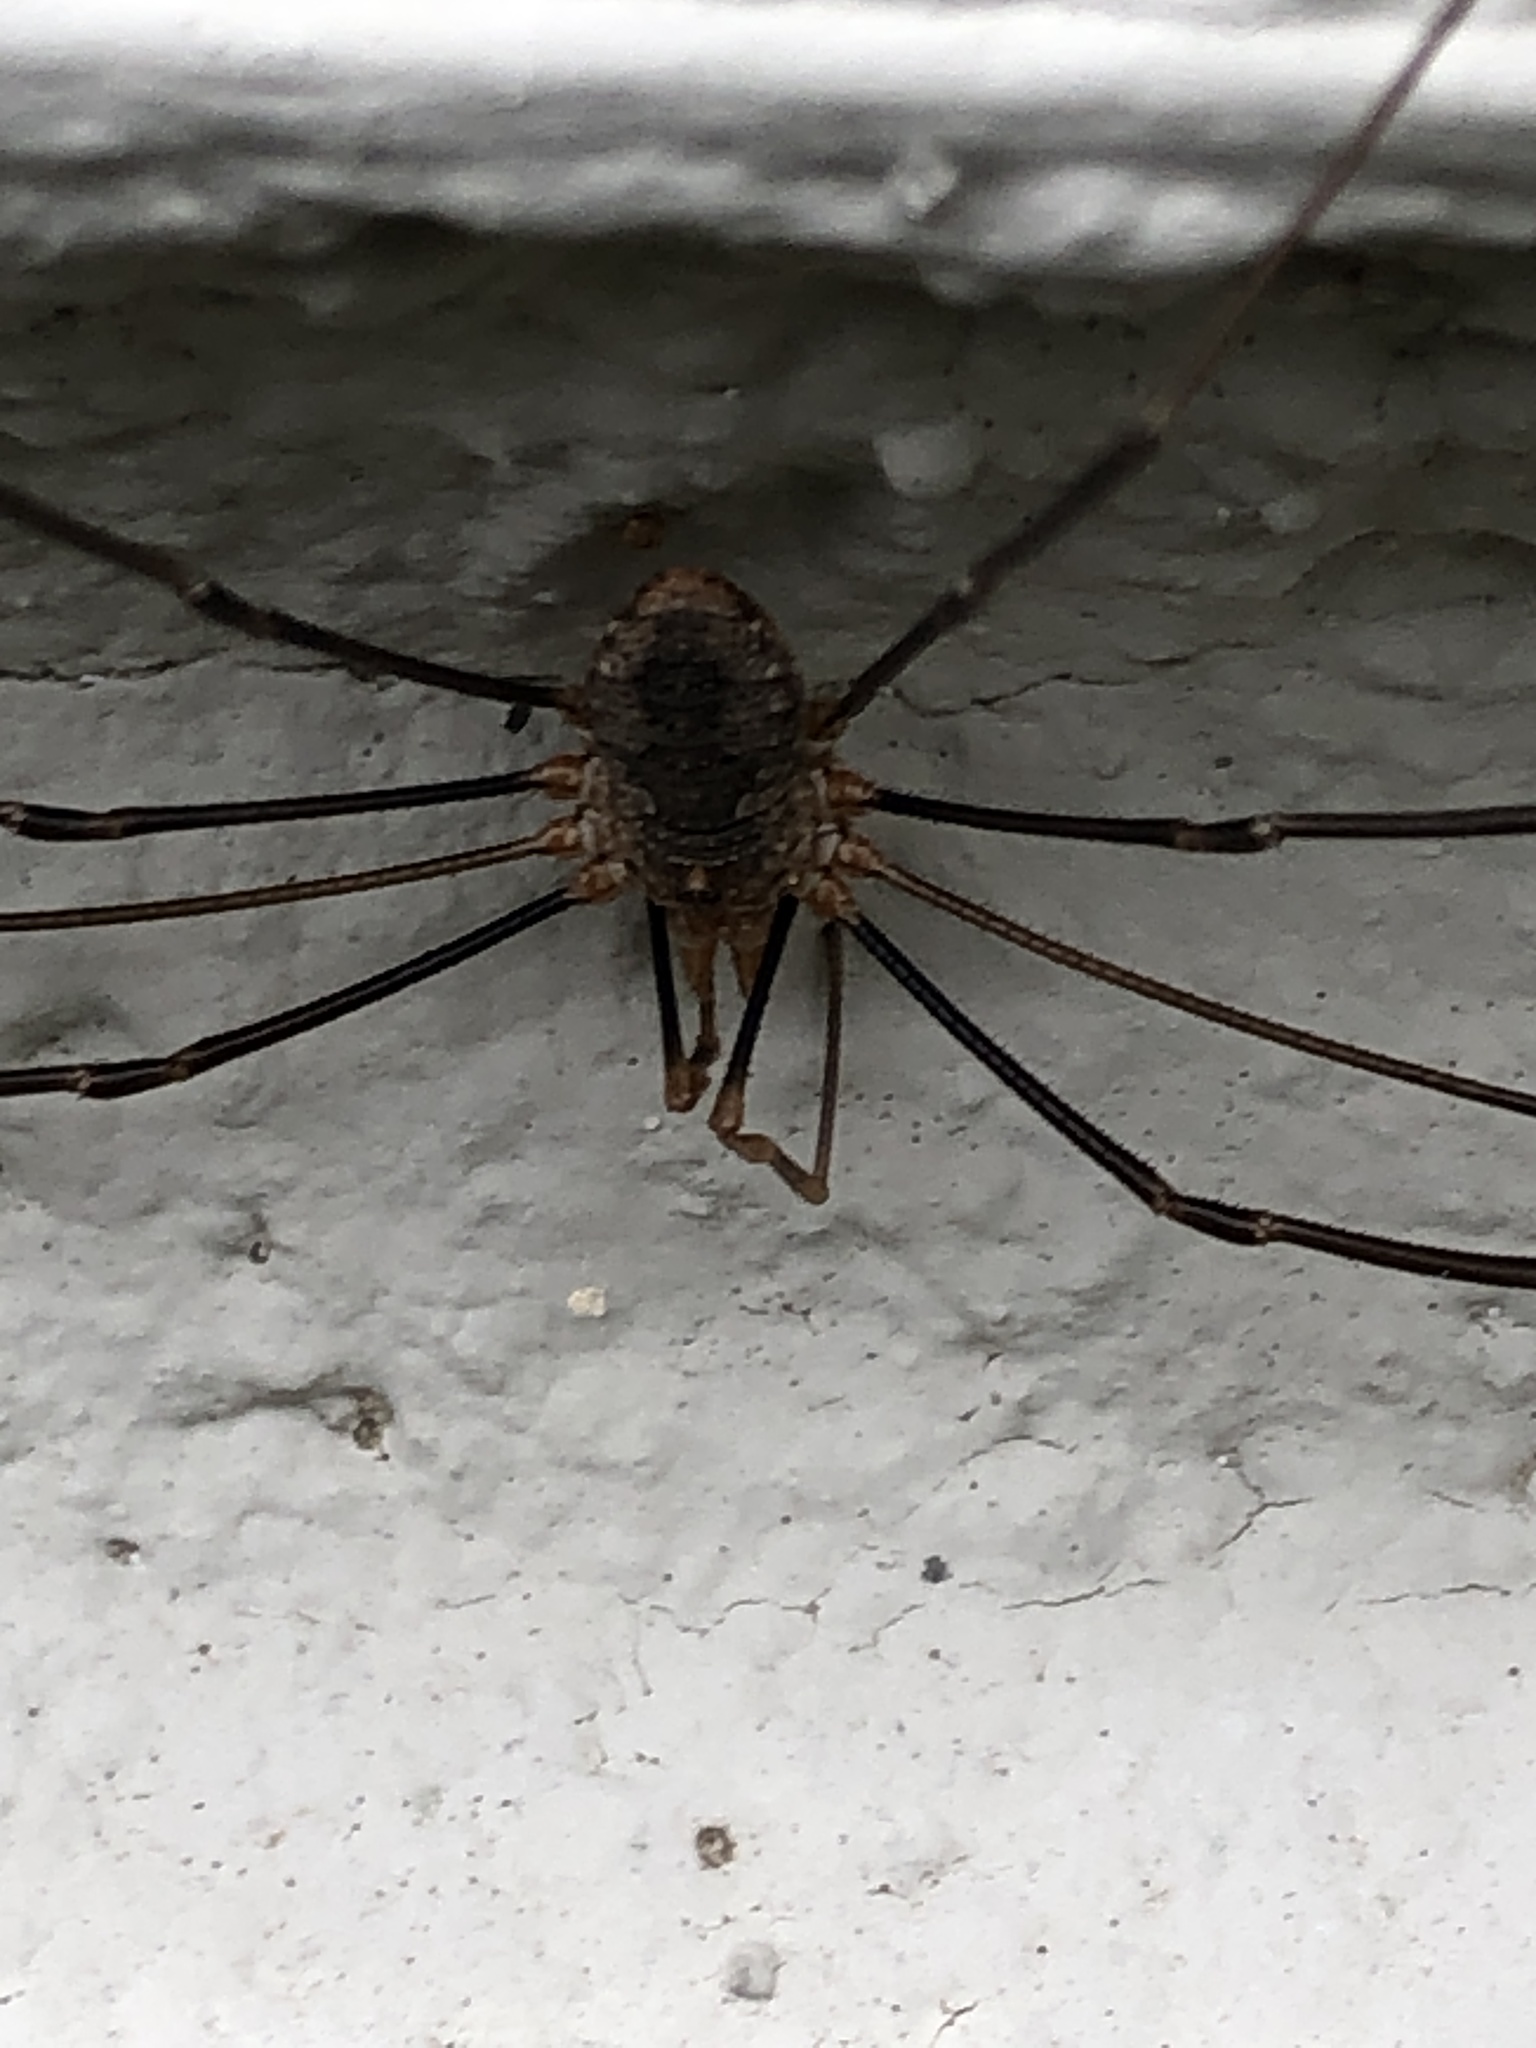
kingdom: Animalia
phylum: Arthropoda
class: Arachnida
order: Opiliones
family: Phalangiidae
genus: Phalangium
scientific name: Phalangium opilio
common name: Daddy longleg
